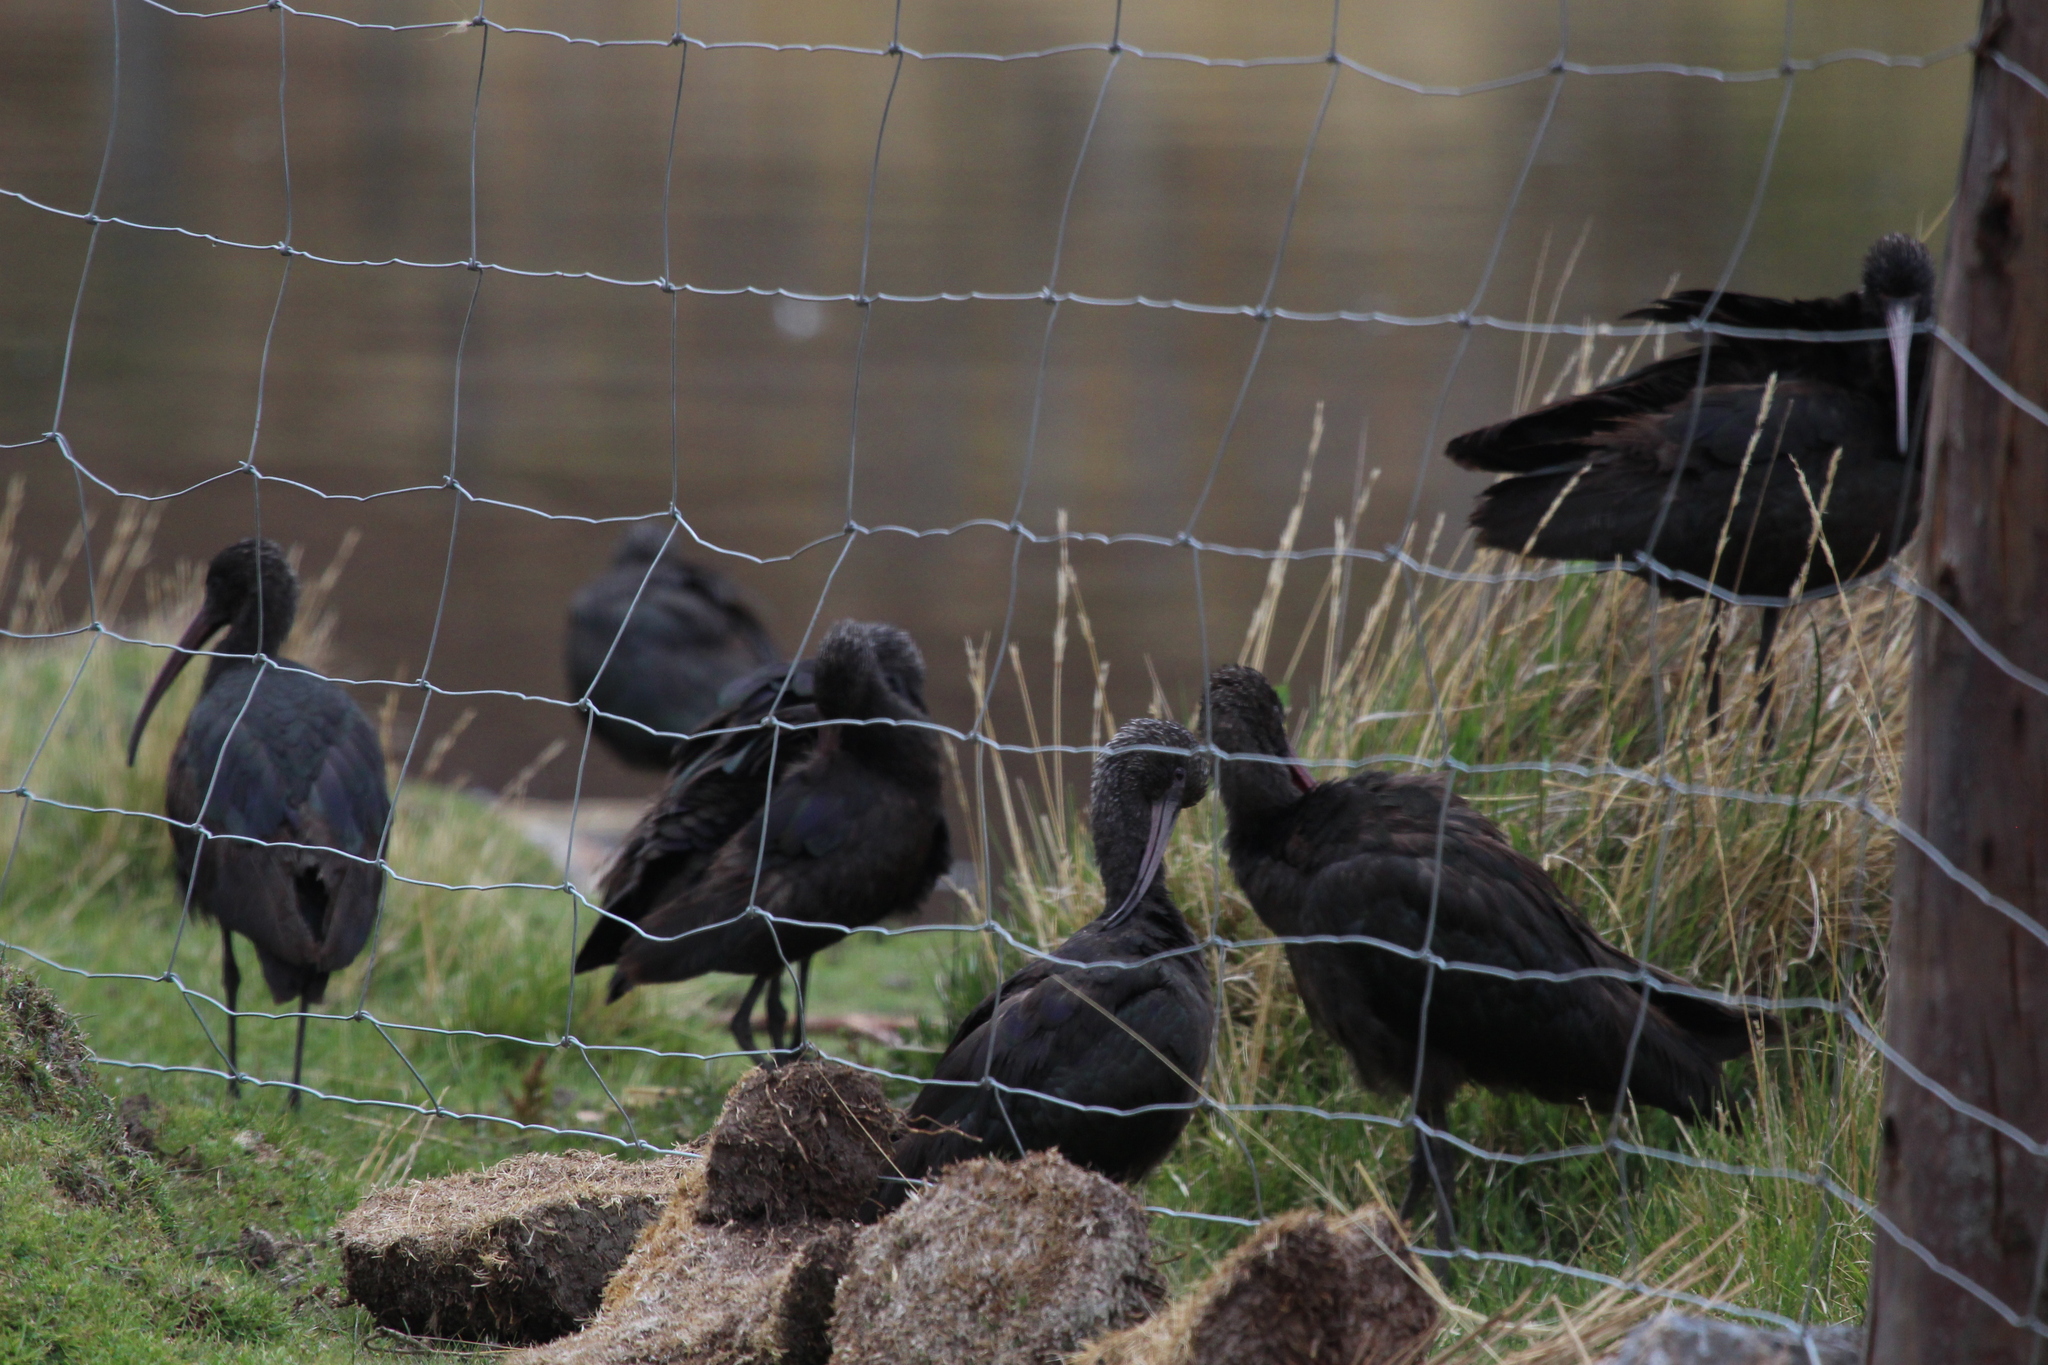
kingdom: Animalia
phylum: Chordata
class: Aves
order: Pelecaniformes
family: Threskiornithidae
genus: Plegadis
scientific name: Plegadis ridgwayi
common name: Puna ibis
